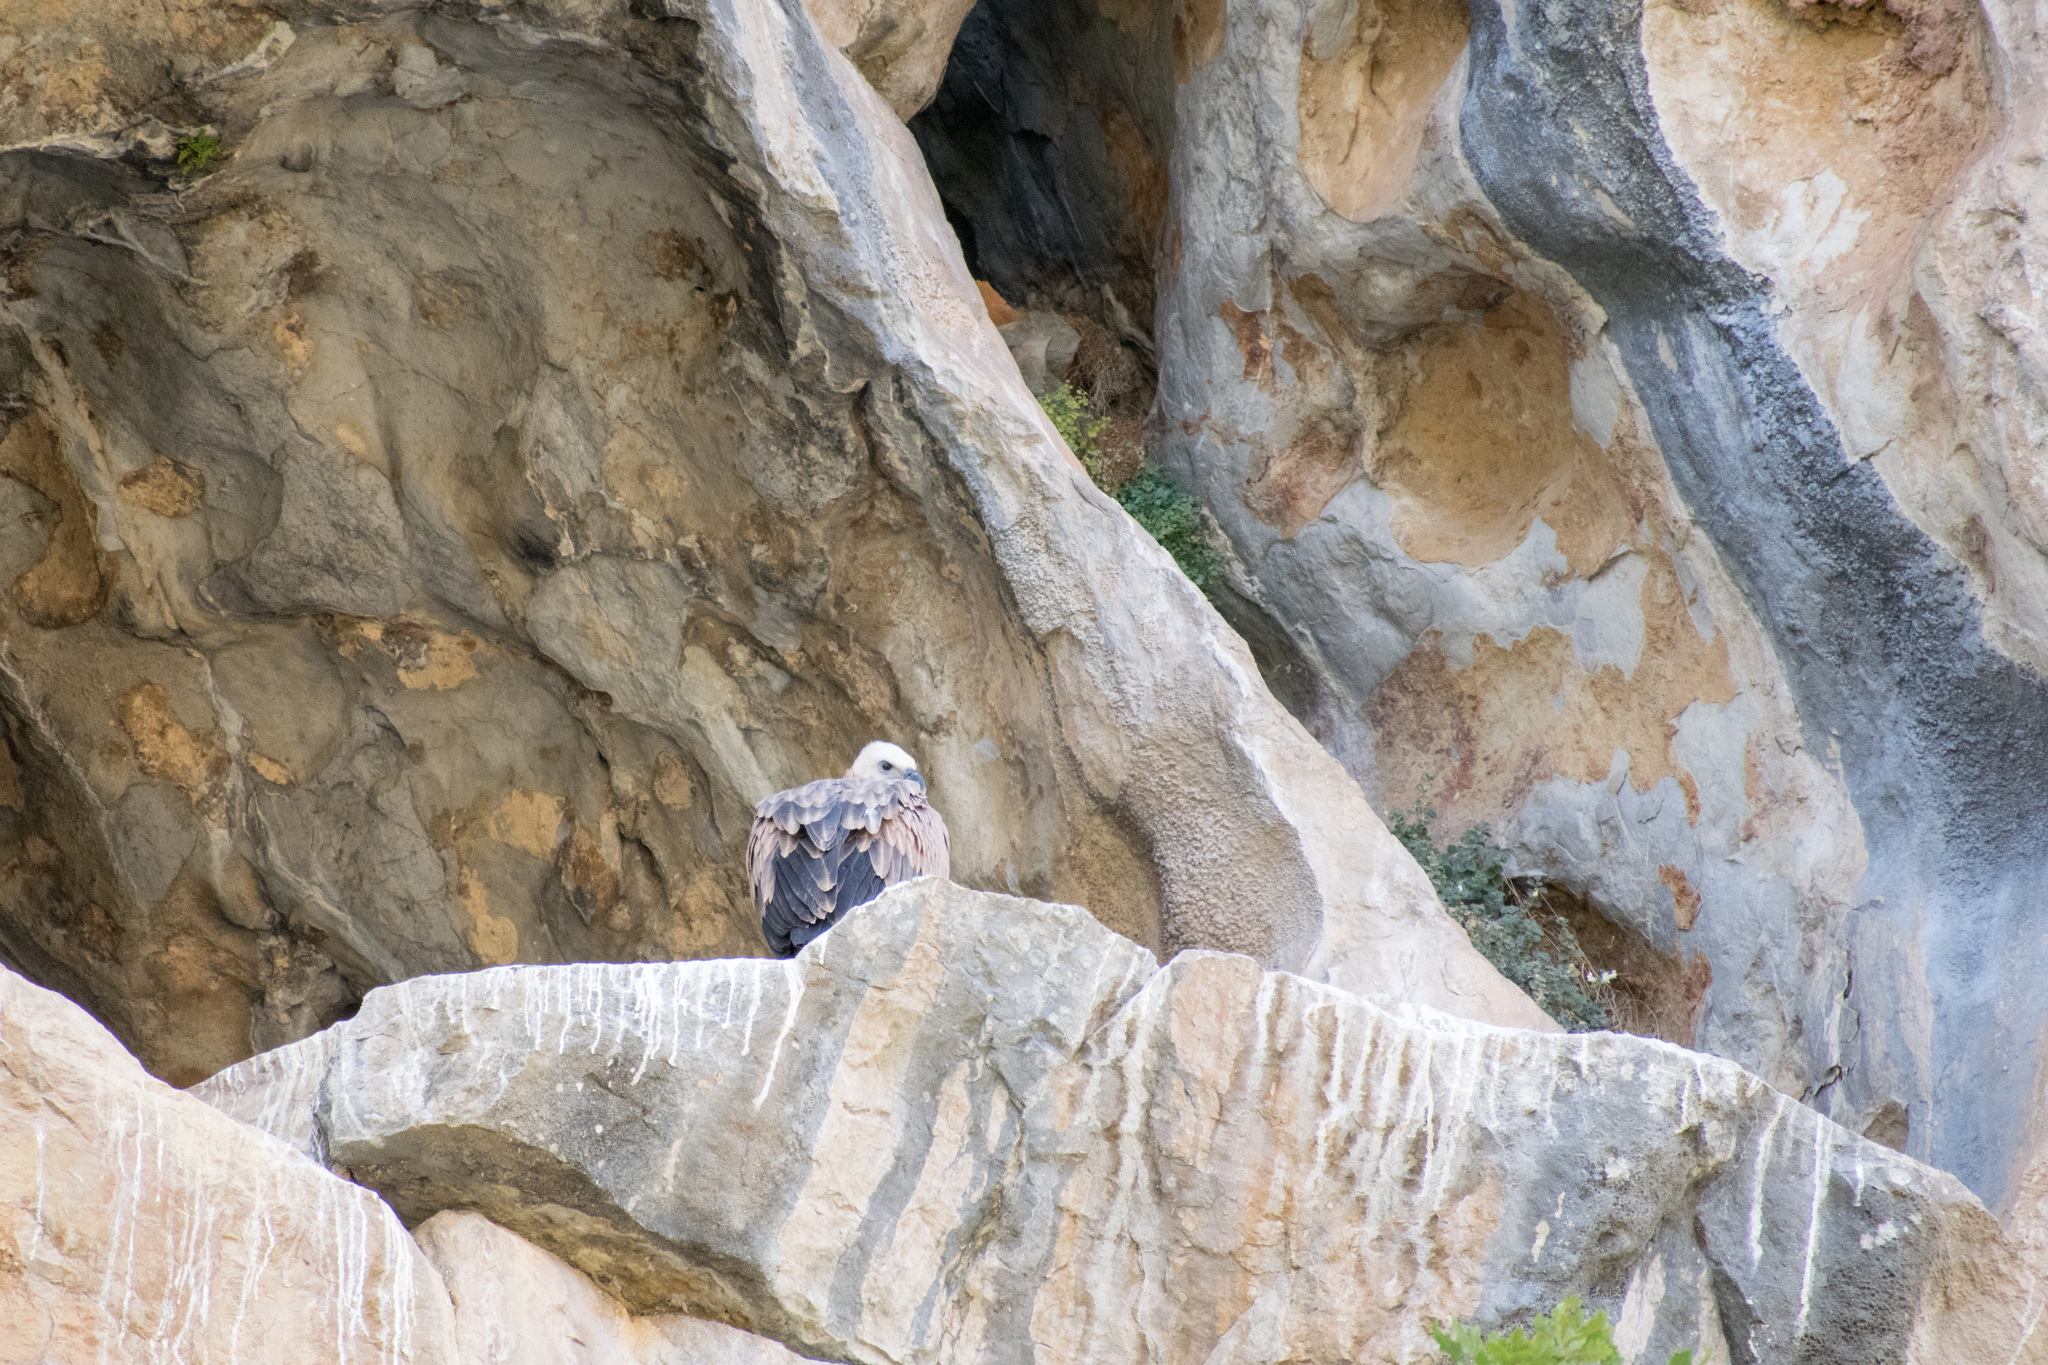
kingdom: Animalia
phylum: Chordata
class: Aves
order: Accipitriformes
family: Accipitridae
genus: Gyps
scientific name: Gyps fulvus
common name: Griffon vulture
